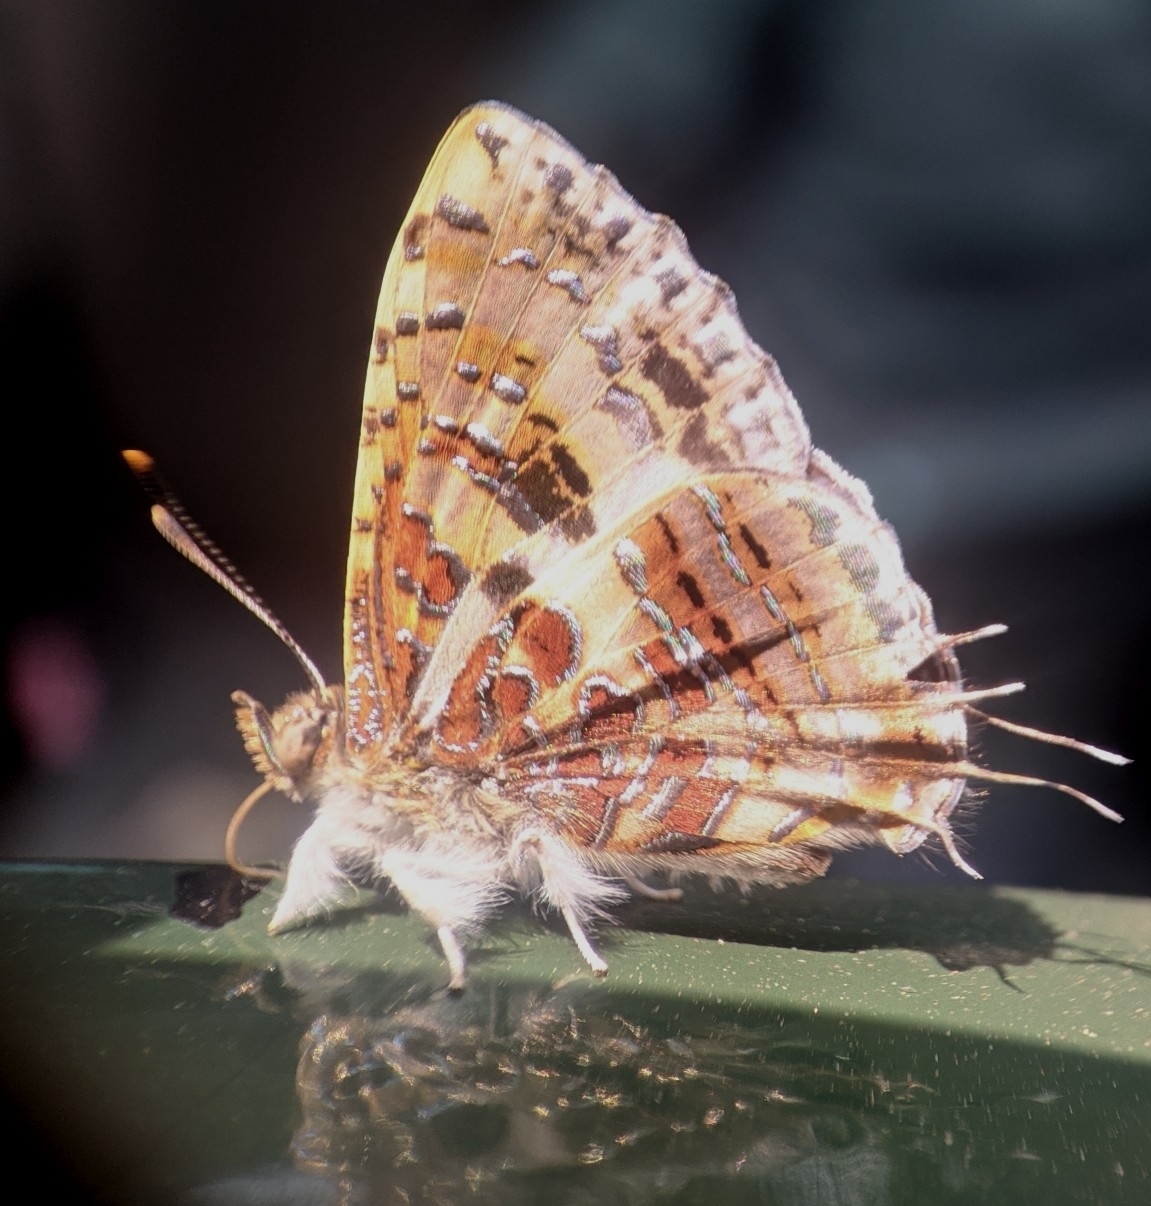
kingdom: Animalia
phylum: Arthropoda
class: Insecta
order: Lepidoptera
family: Lycaenidae
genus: Catapaecilma
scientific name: Catapaecilma major
